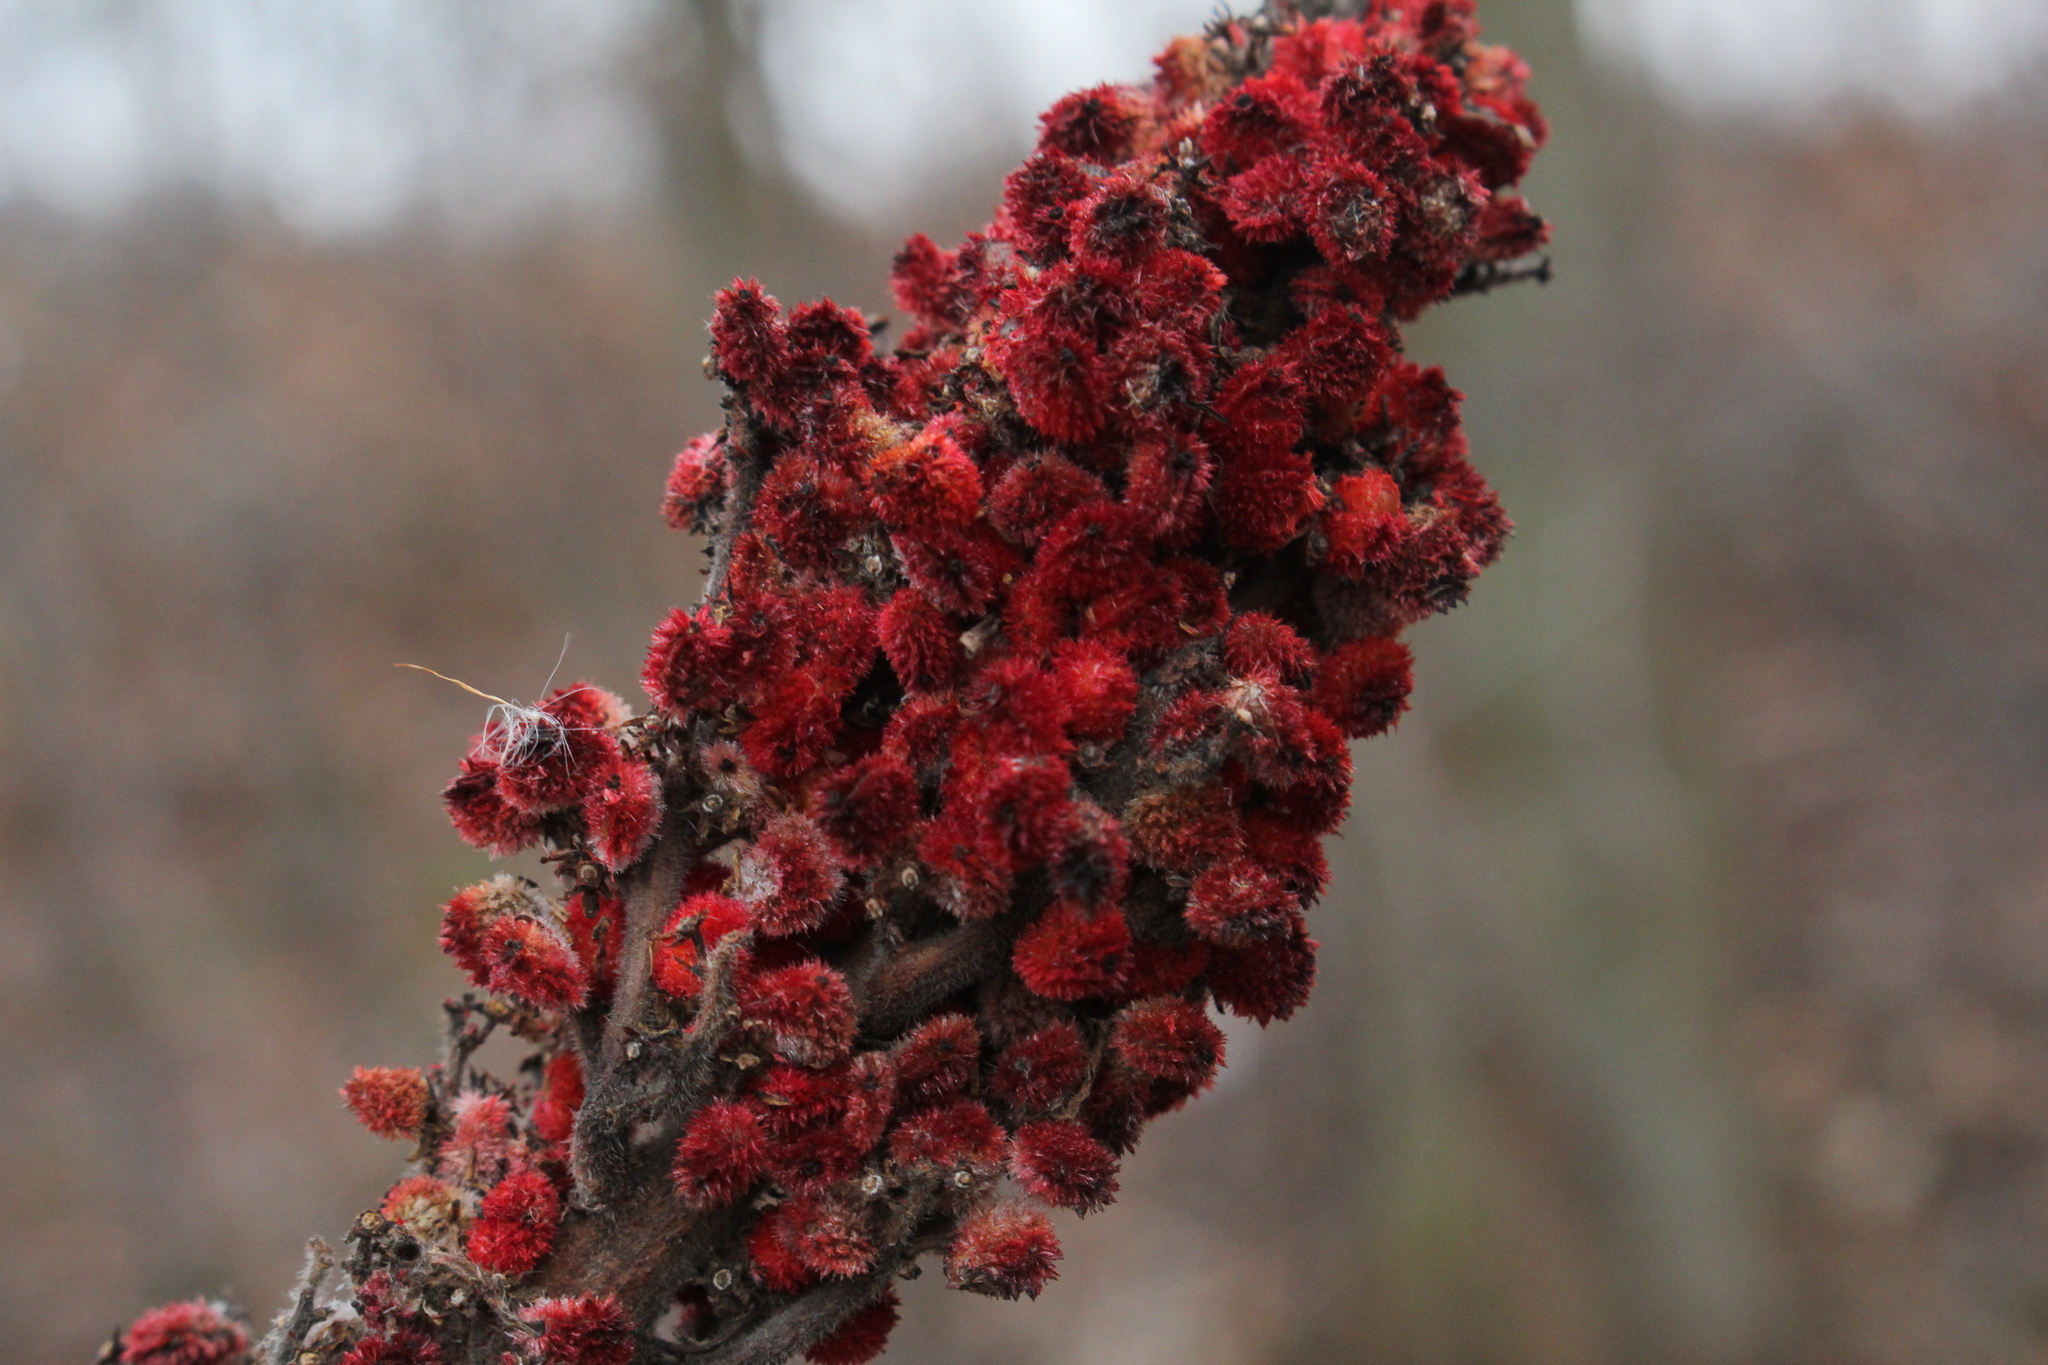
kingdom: Plantae
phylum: Tracheophyta
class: Magnoliopsida
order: Sapindales
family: Anacardiaceae
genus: Rhus
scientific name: Rhus glabra
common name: Scarlet sumac
